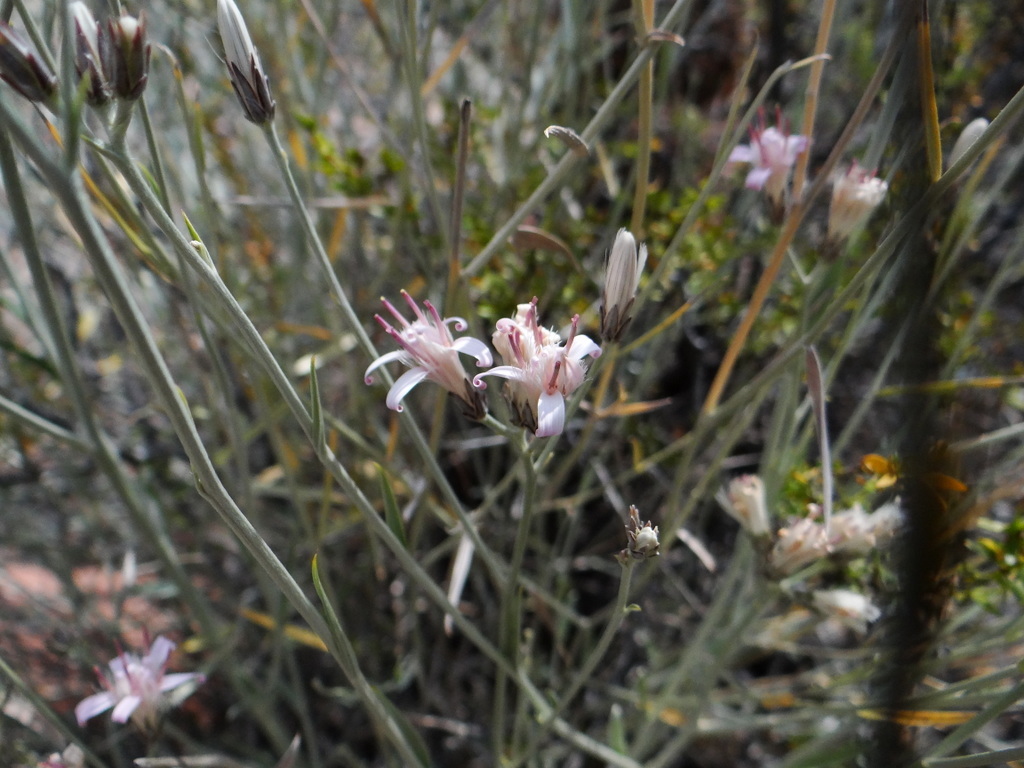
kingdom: Plantae
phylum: Tracheophyta
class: Magnoliopsida
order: Asterales
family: Asteraceae
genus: Hyalis
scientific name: Hyalis argentea
